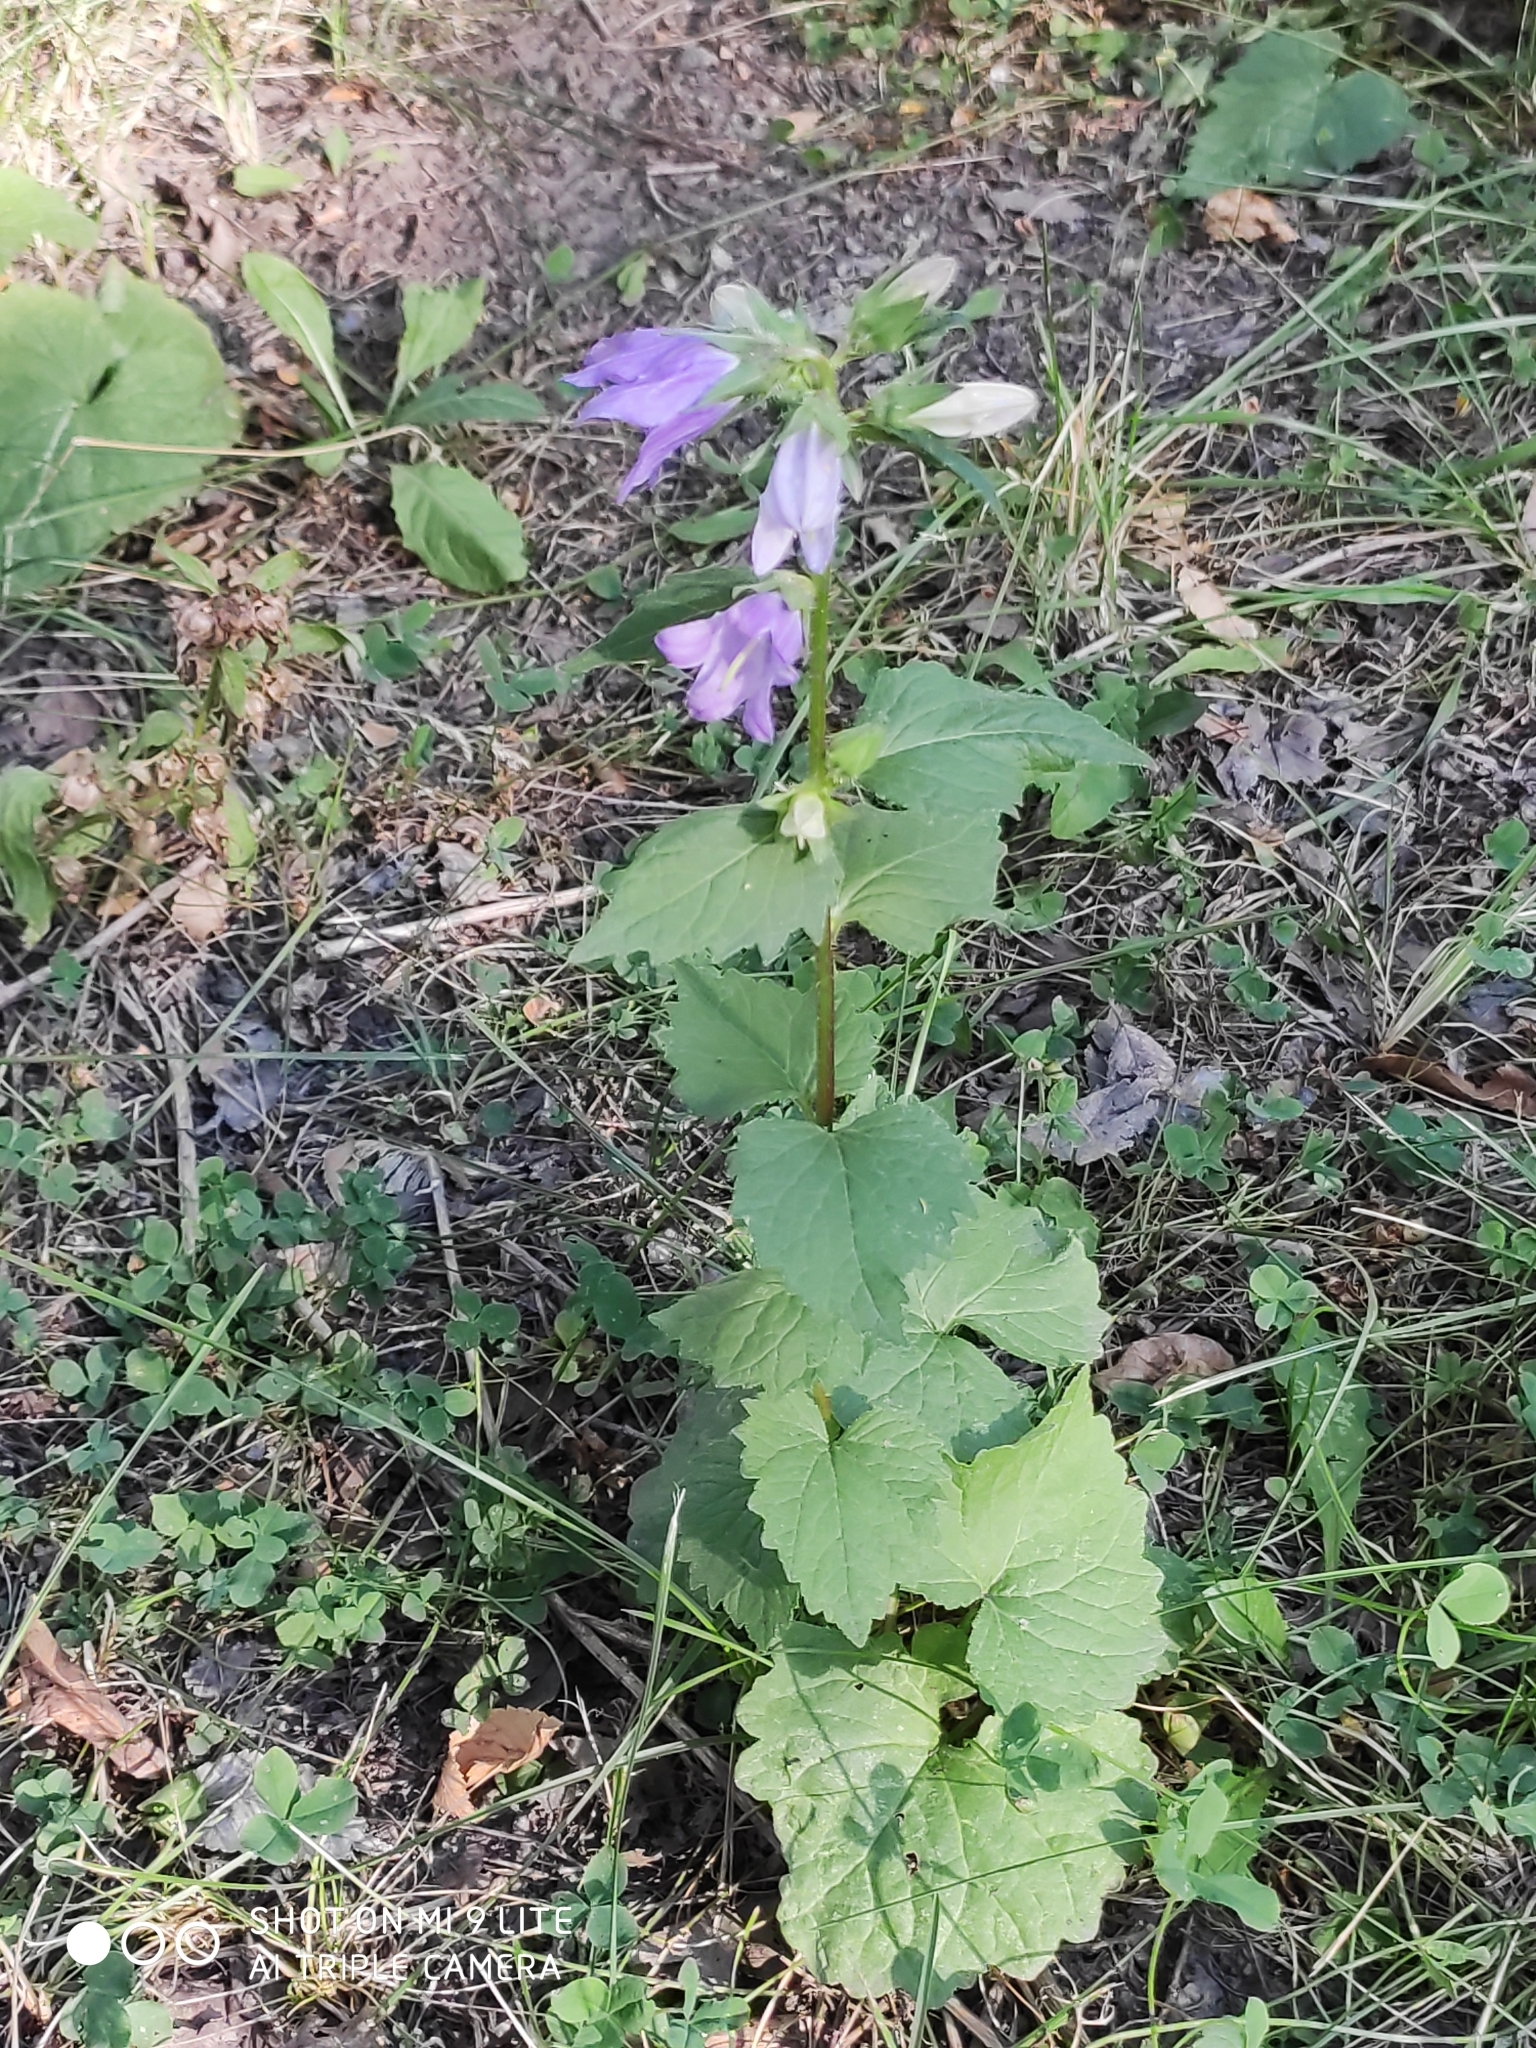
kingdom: Plantae
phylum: Tracheophyta
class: Magnoliopsida
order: Asterales
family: Campanulaceae
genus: Campanula
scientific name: Campanula trachelium
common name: Nettle-leaved bellflower
